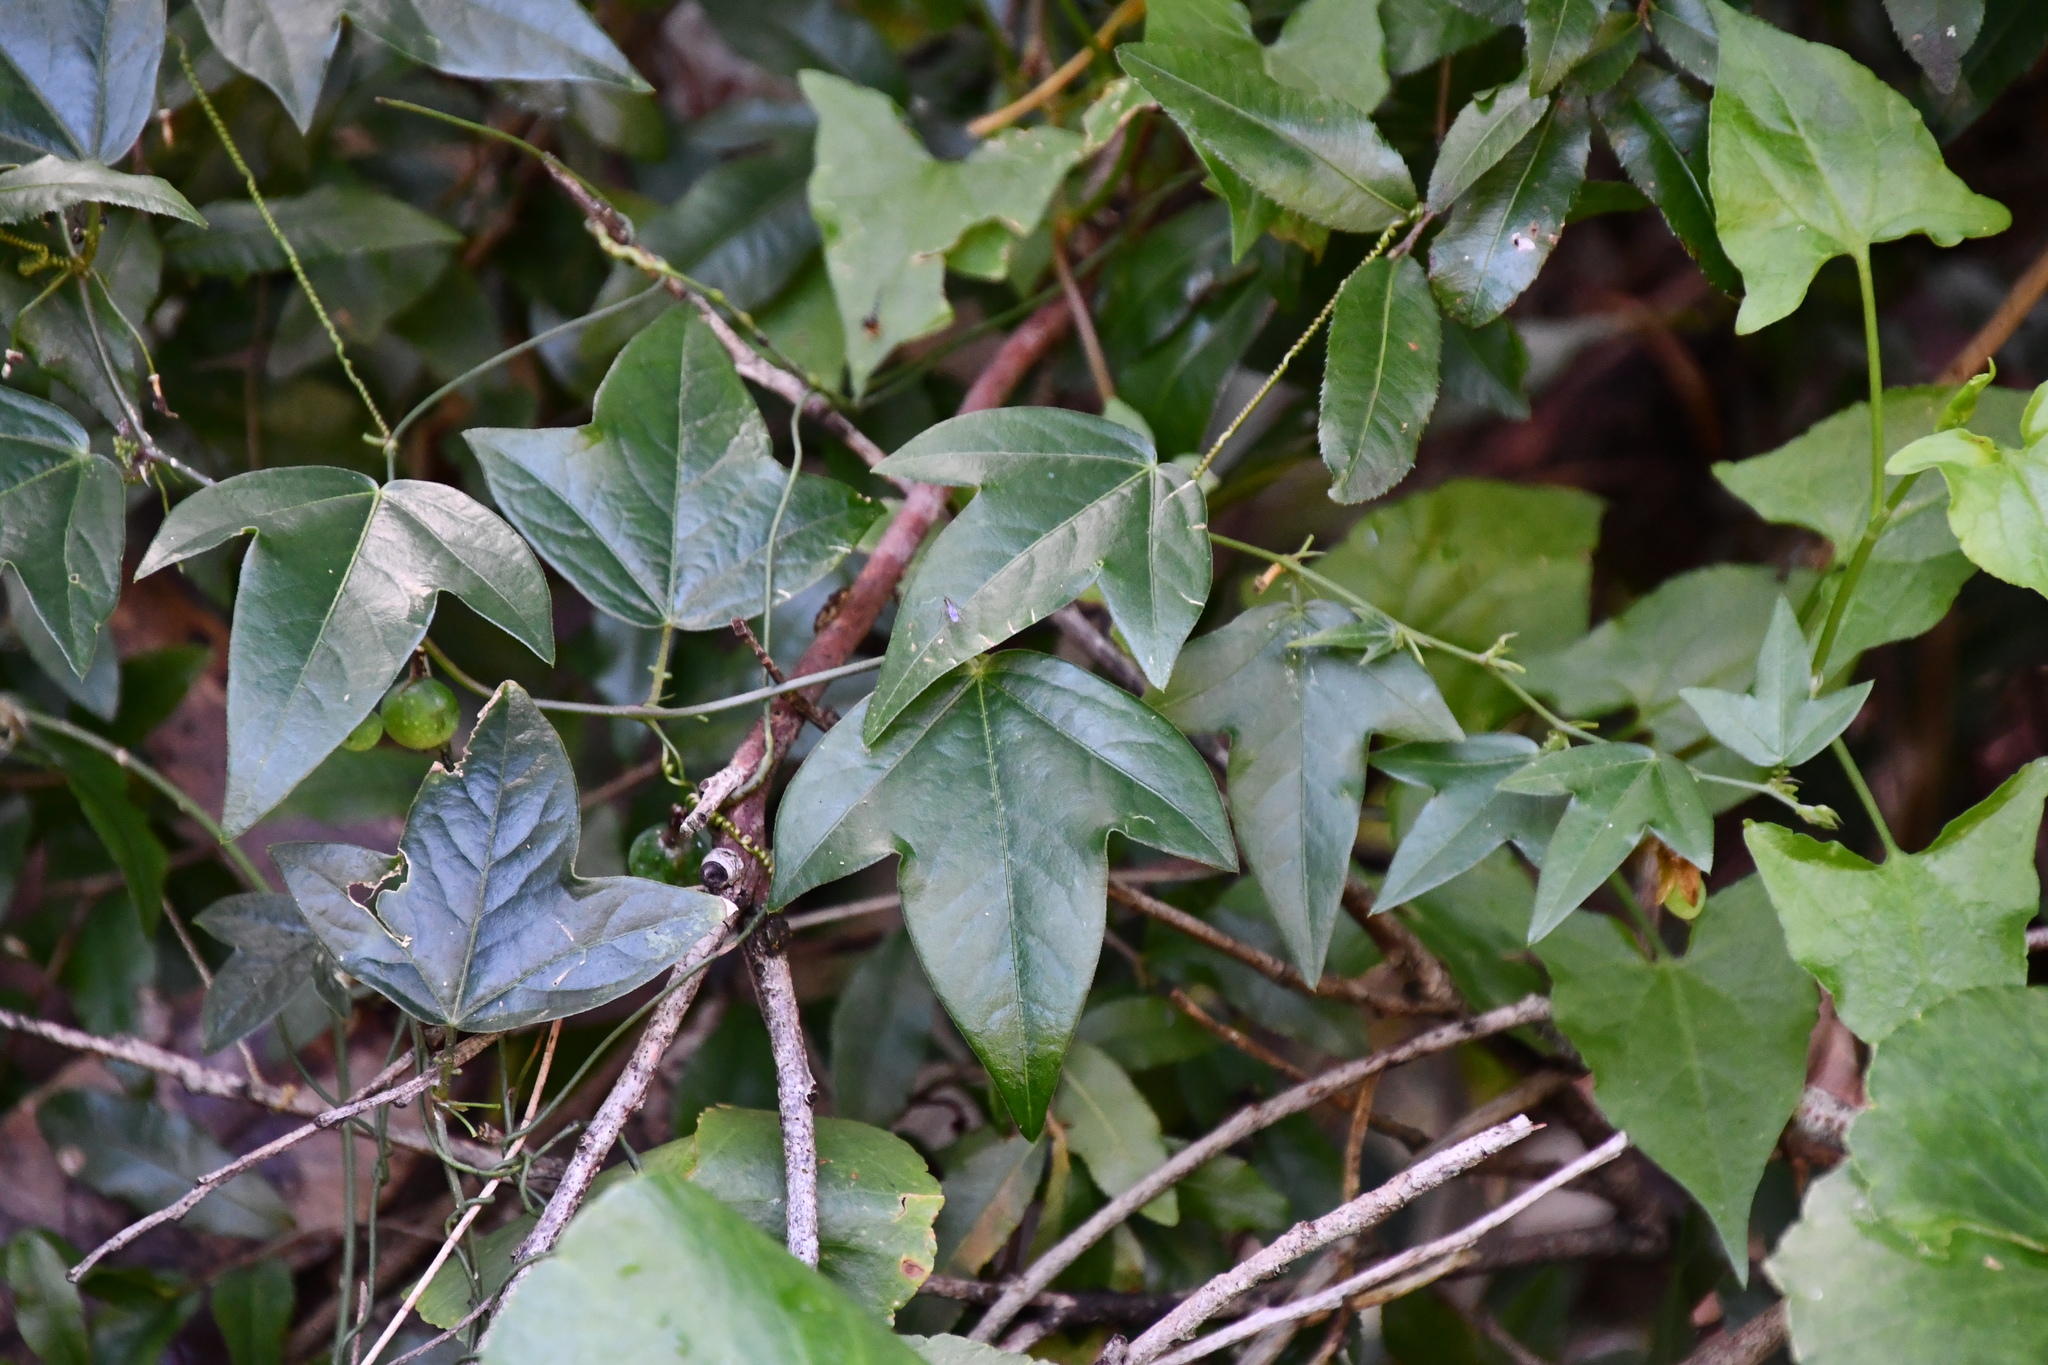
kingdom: Plantae
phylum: Tracheophyta
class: Magnoliopsida
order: Malpighiales
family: Passifloraceae
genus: Passiflora
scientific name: Passiflora suberosa
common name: Wild passionfruit
